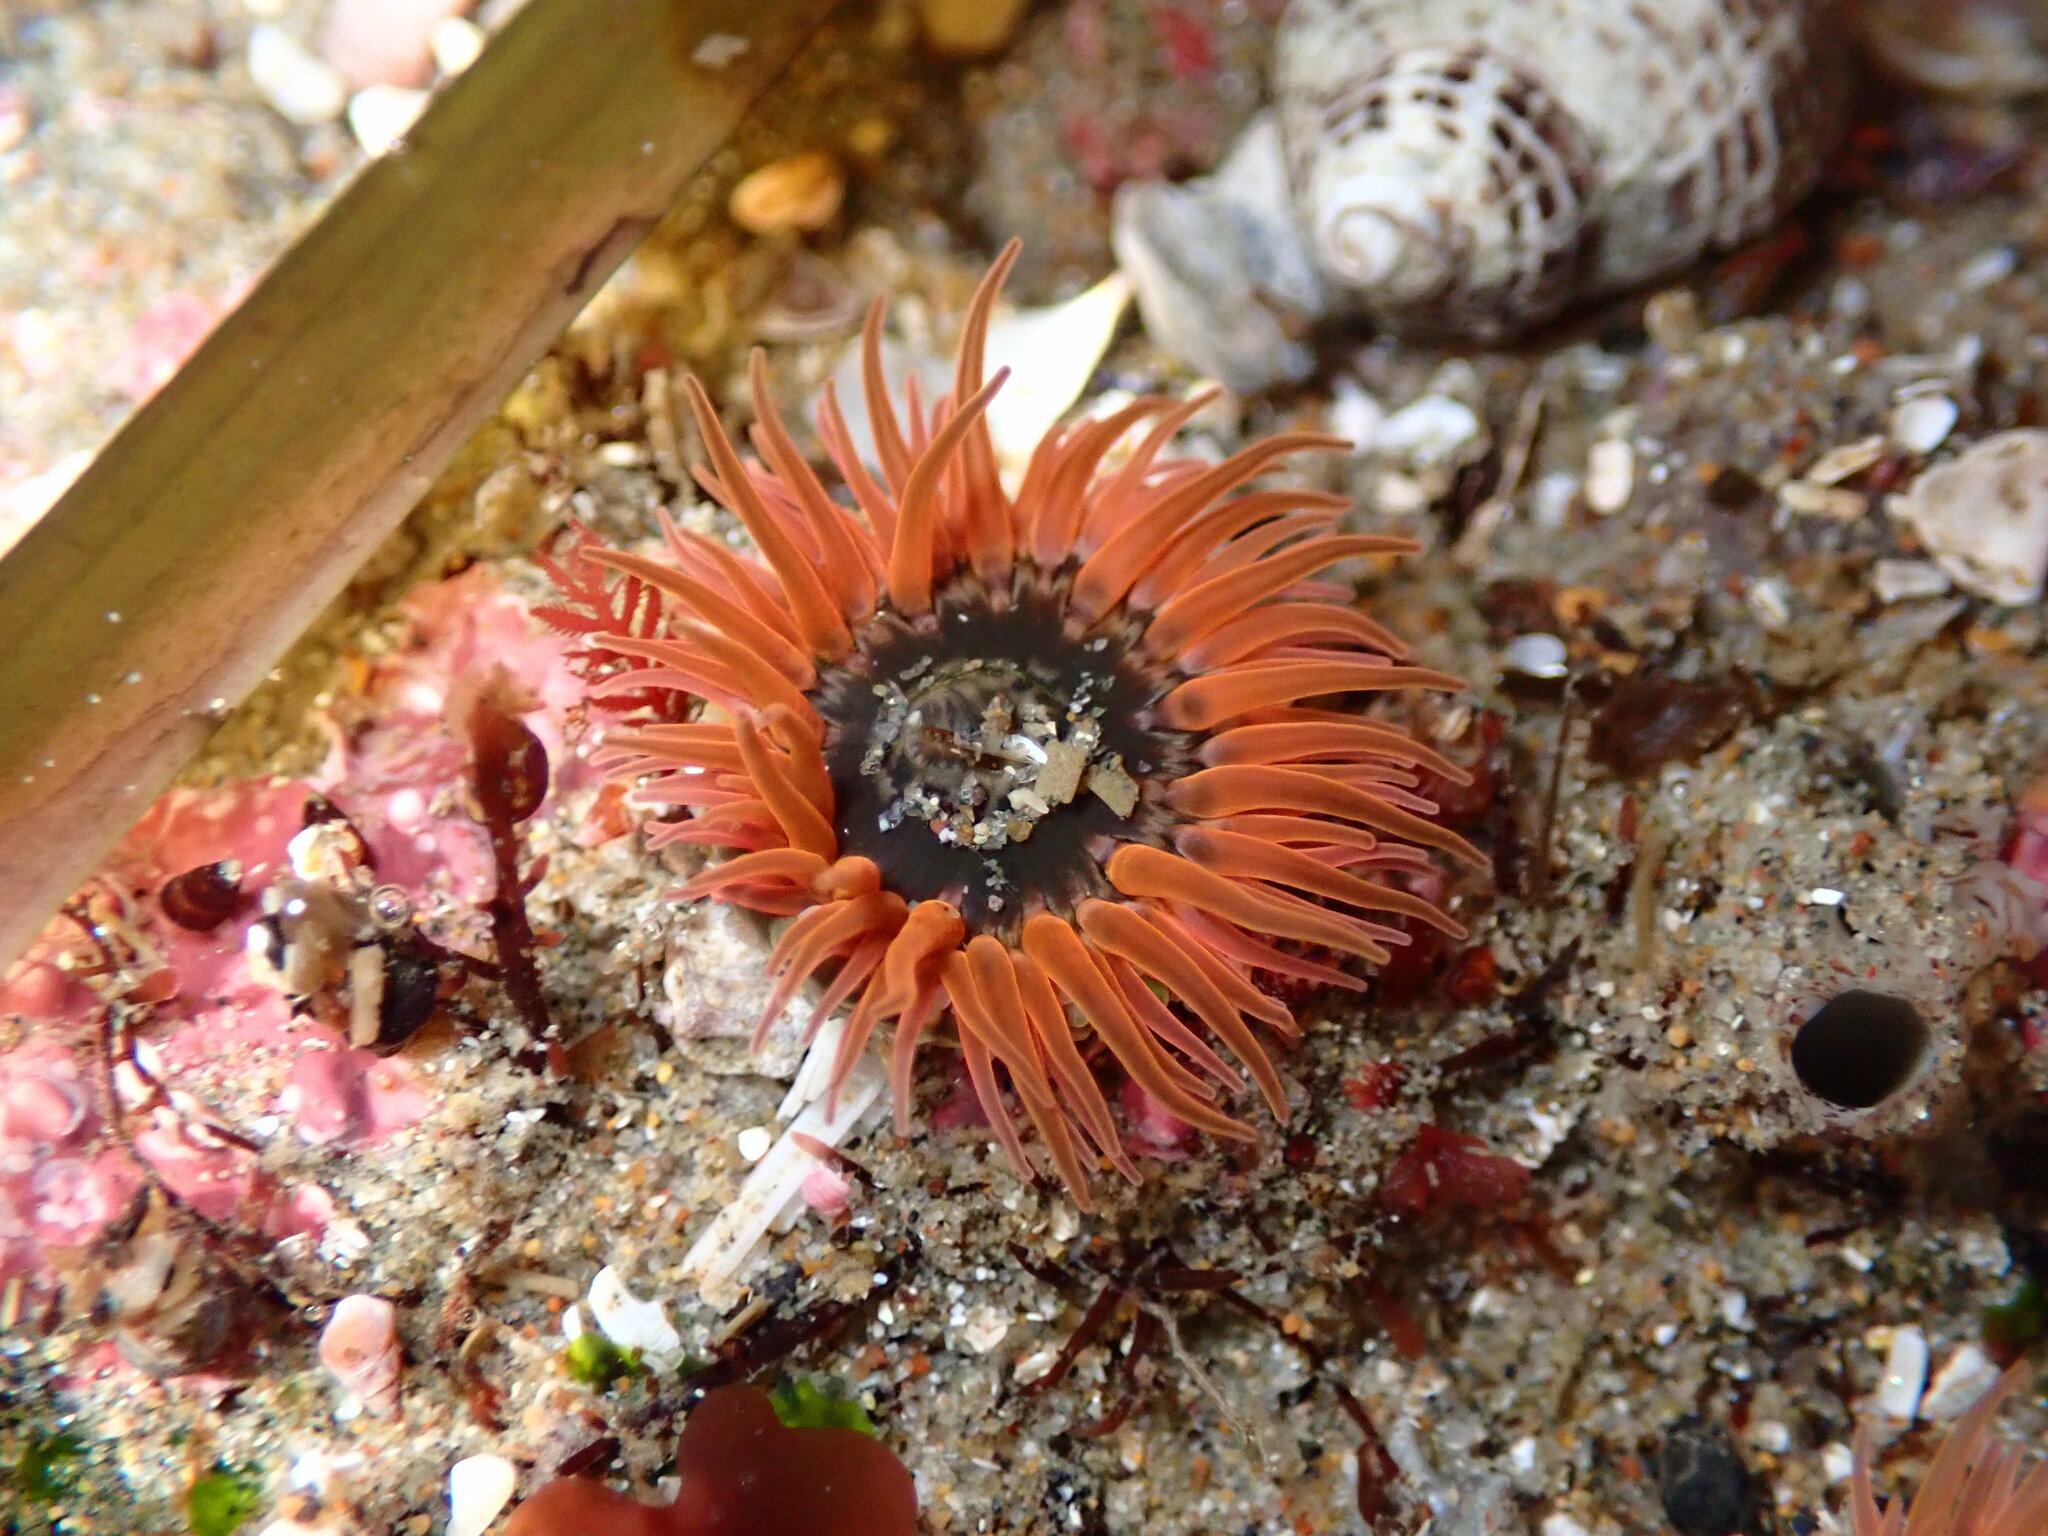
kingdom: Animalia
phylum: Cnidaria
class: Anthozoa
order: Actiniaria
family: Actiniidae
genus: Anthopleura
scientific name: Anthopleura artemisia
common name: Buried sea anemone
